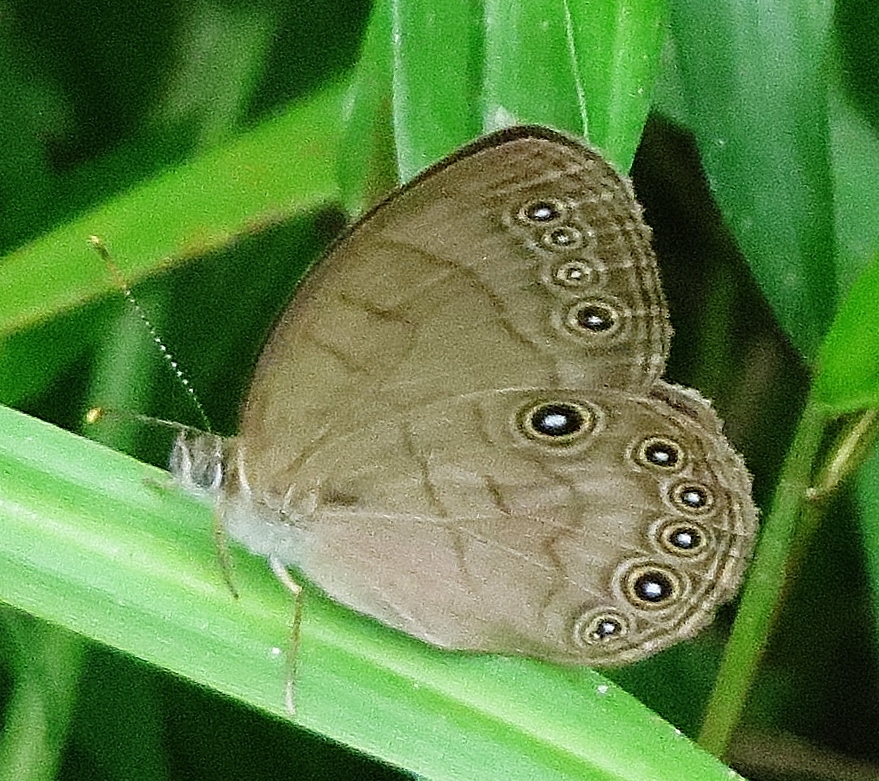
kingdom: Animalia
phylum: Arthropoda
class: Insecta
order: Lepidoptera
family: Nymphalidae
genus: Lethe
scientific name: Lethe eurydice
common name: Eyed brown
